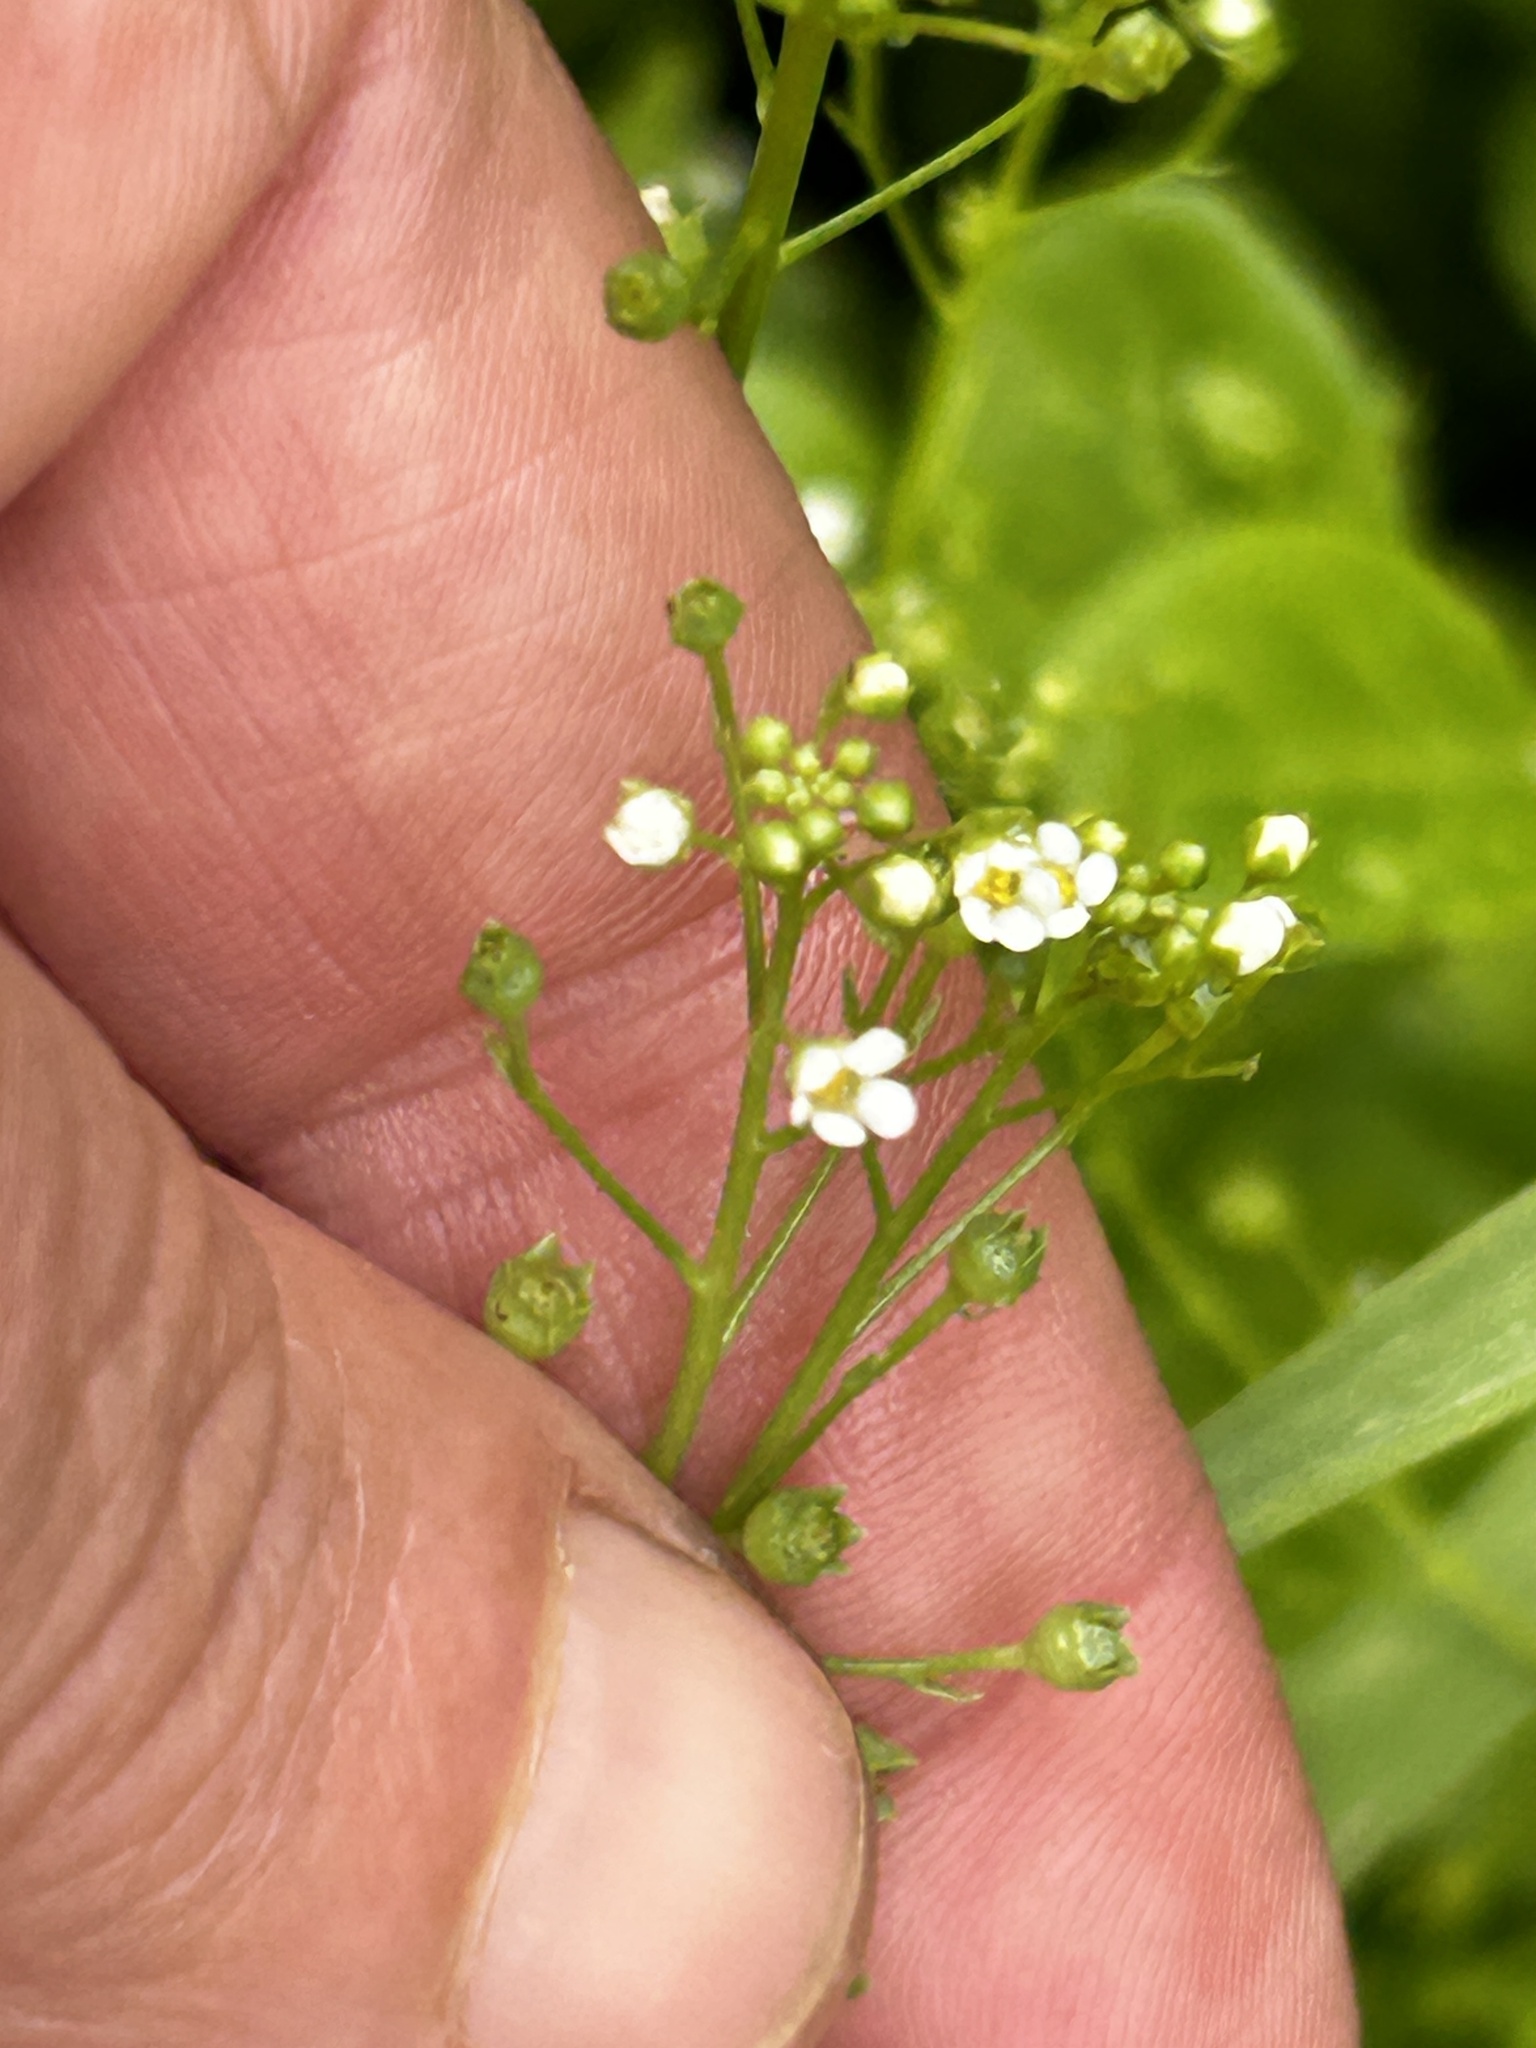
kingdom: Plantae
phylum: Tracheophyta
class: Magnoliopsida
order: Ericales
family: Primulaceae
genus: Samolus
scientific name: Samolus valerandi
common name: Brookweed
